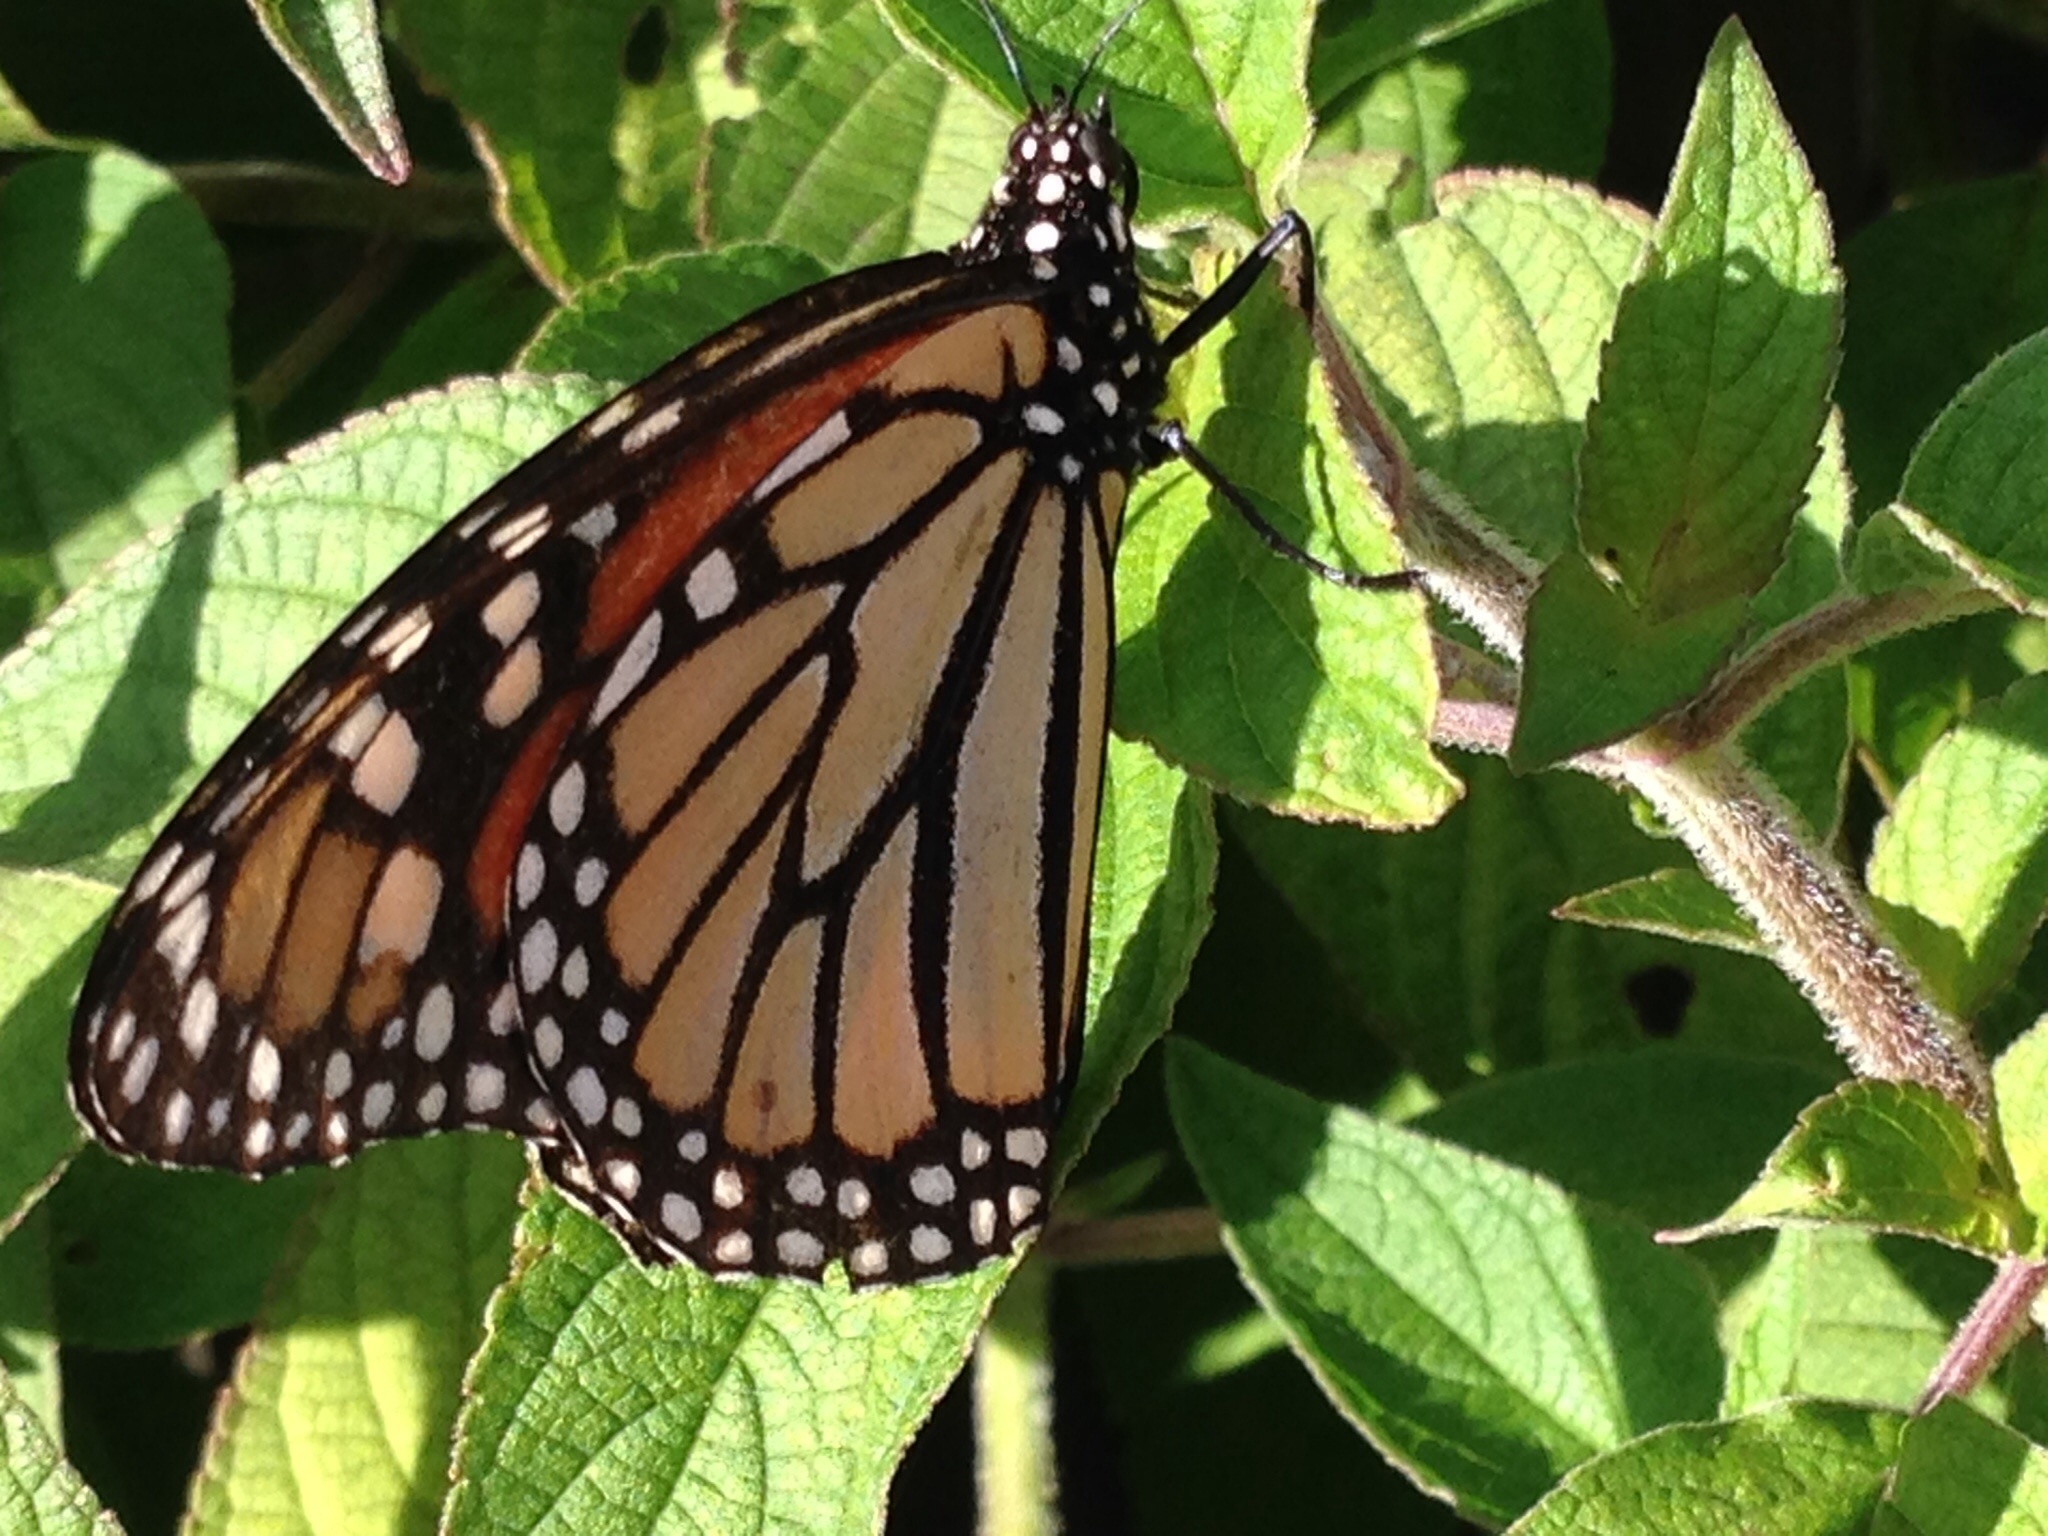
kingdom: Animalia
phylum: Arthropoda
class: Insecta
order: Lepidoptera
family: Nymphalidae
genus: Danaus
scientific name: Danaus plexippus
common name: Monarch
